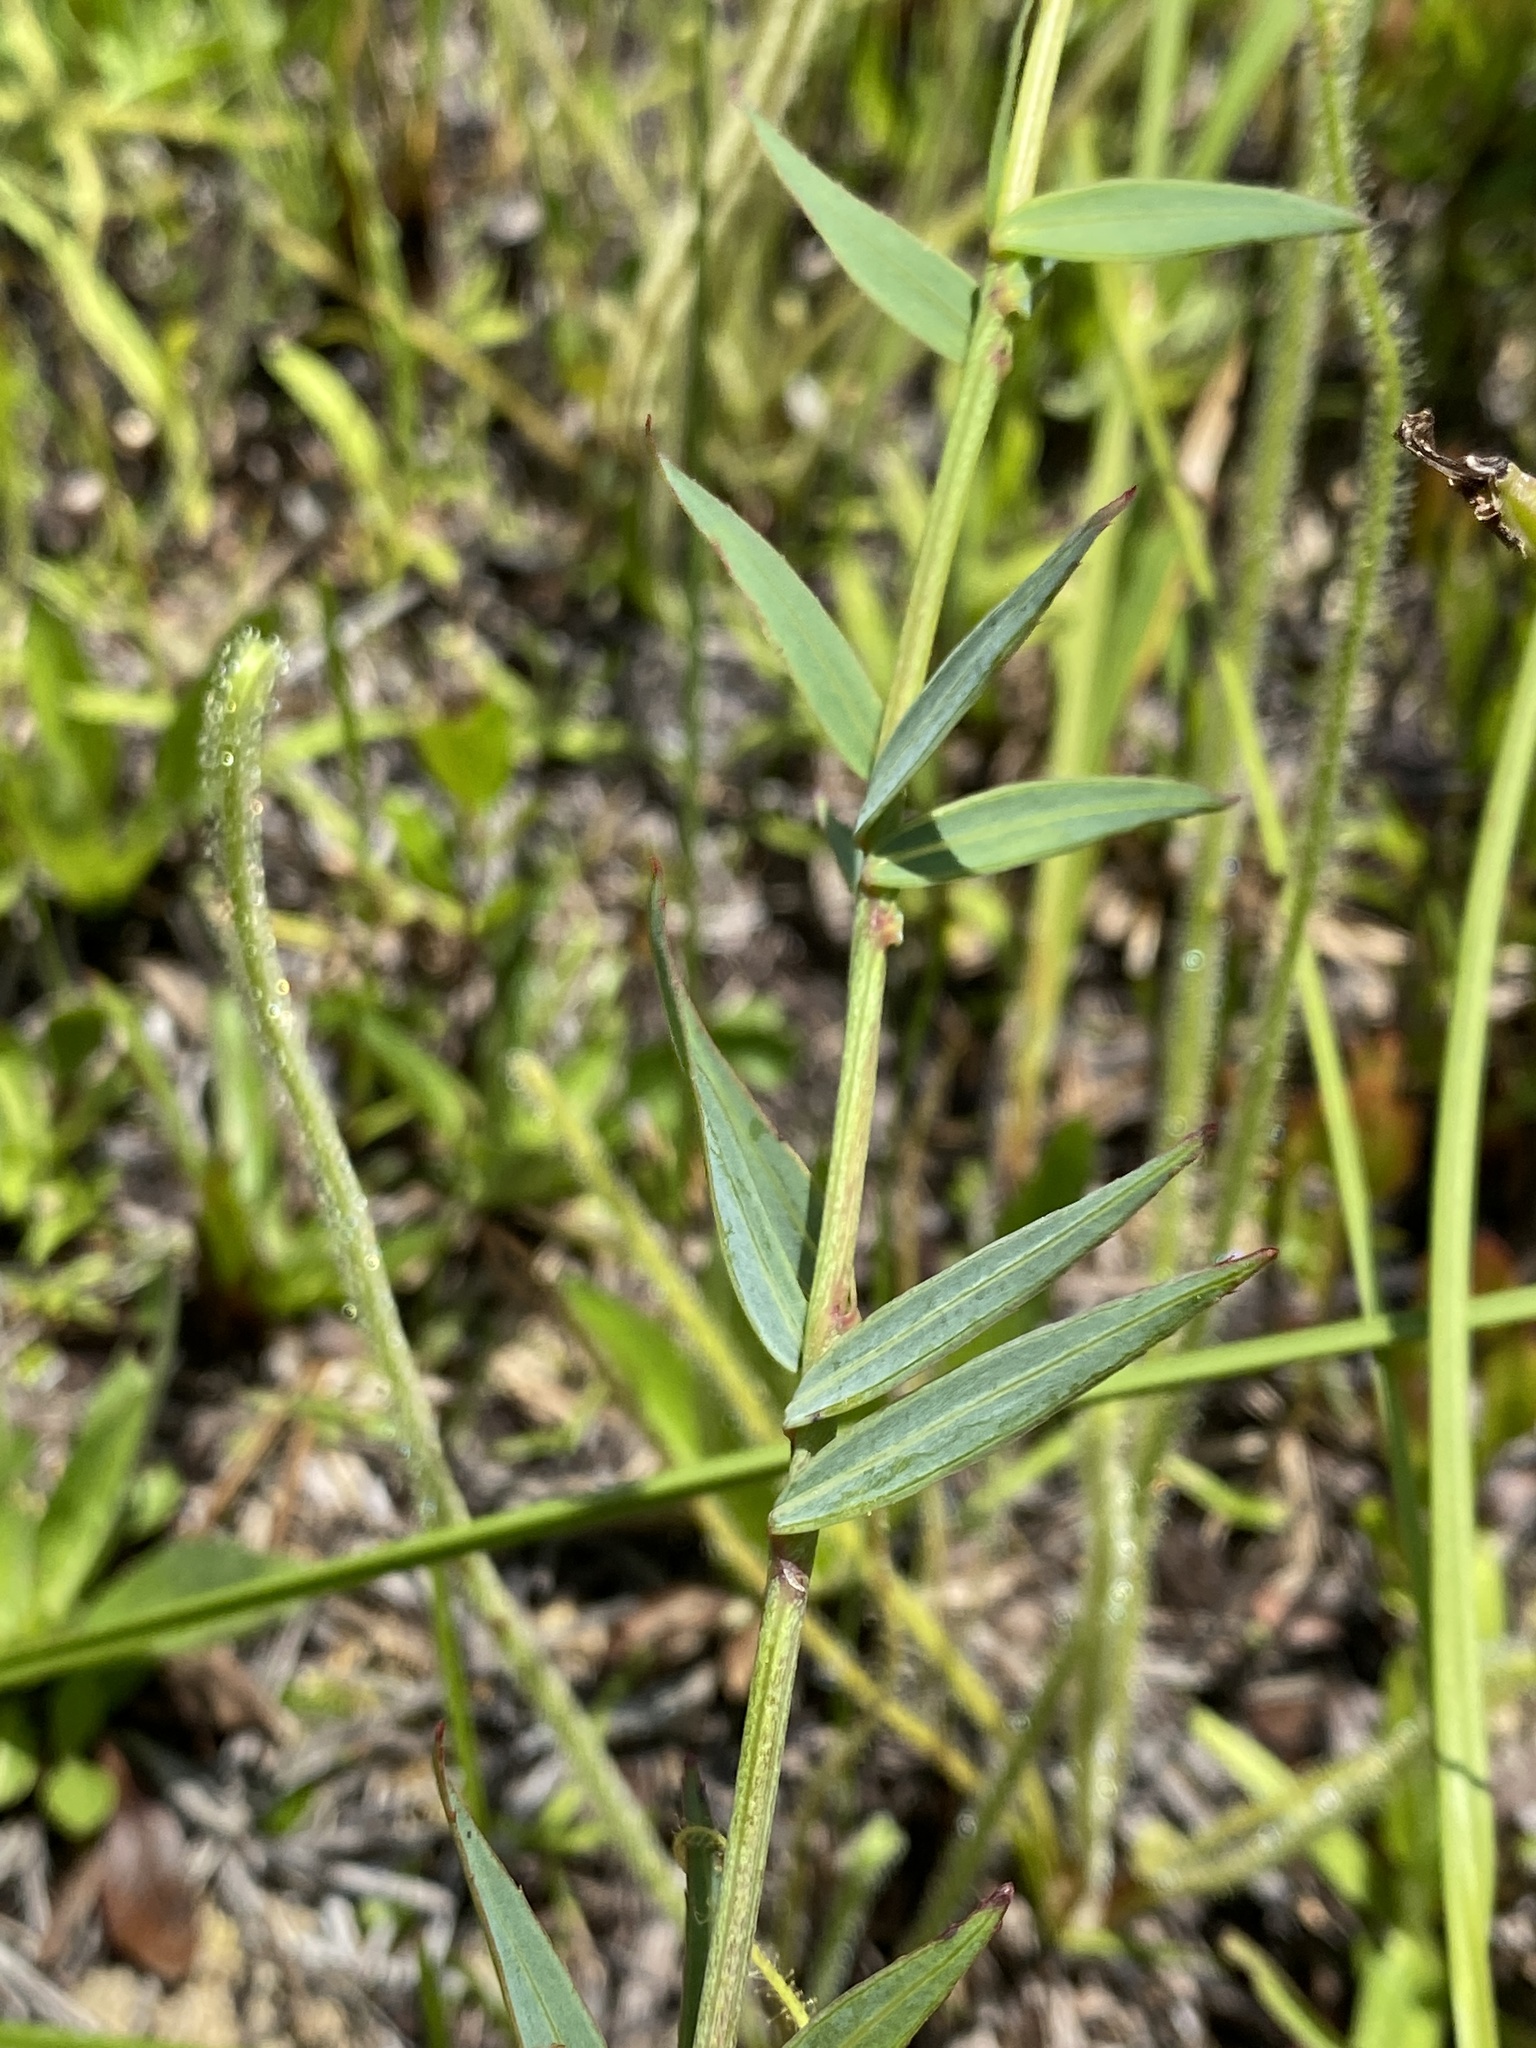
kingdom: Plantae
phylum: Tracheophyta
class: Magnoliopsida
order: Myrtales
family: Melastomataceae
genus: Rhexia
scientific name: Rhexia alifanus
